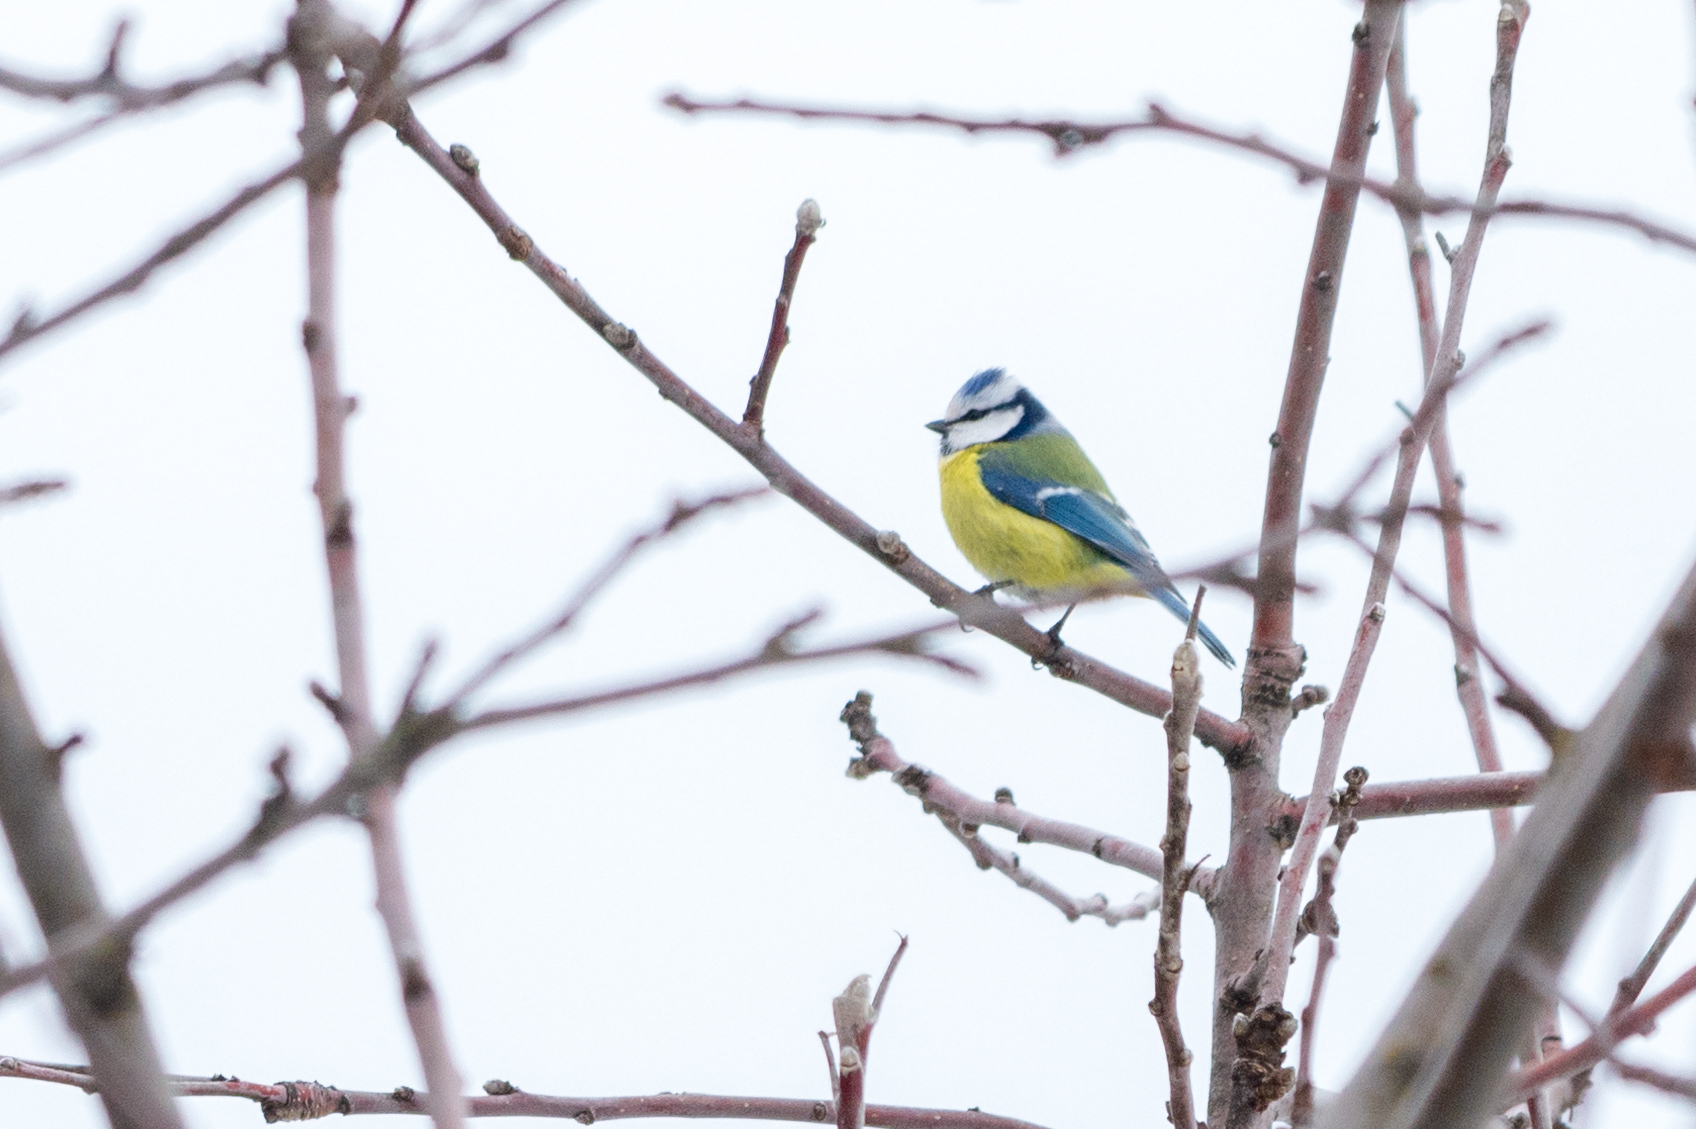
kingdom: Animalia
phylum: Chordata
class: Aves
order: Passeriformes
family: Paridae
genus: Cyanistes
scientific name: Cyanistes caeruleus
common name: Eurasian blue tit
